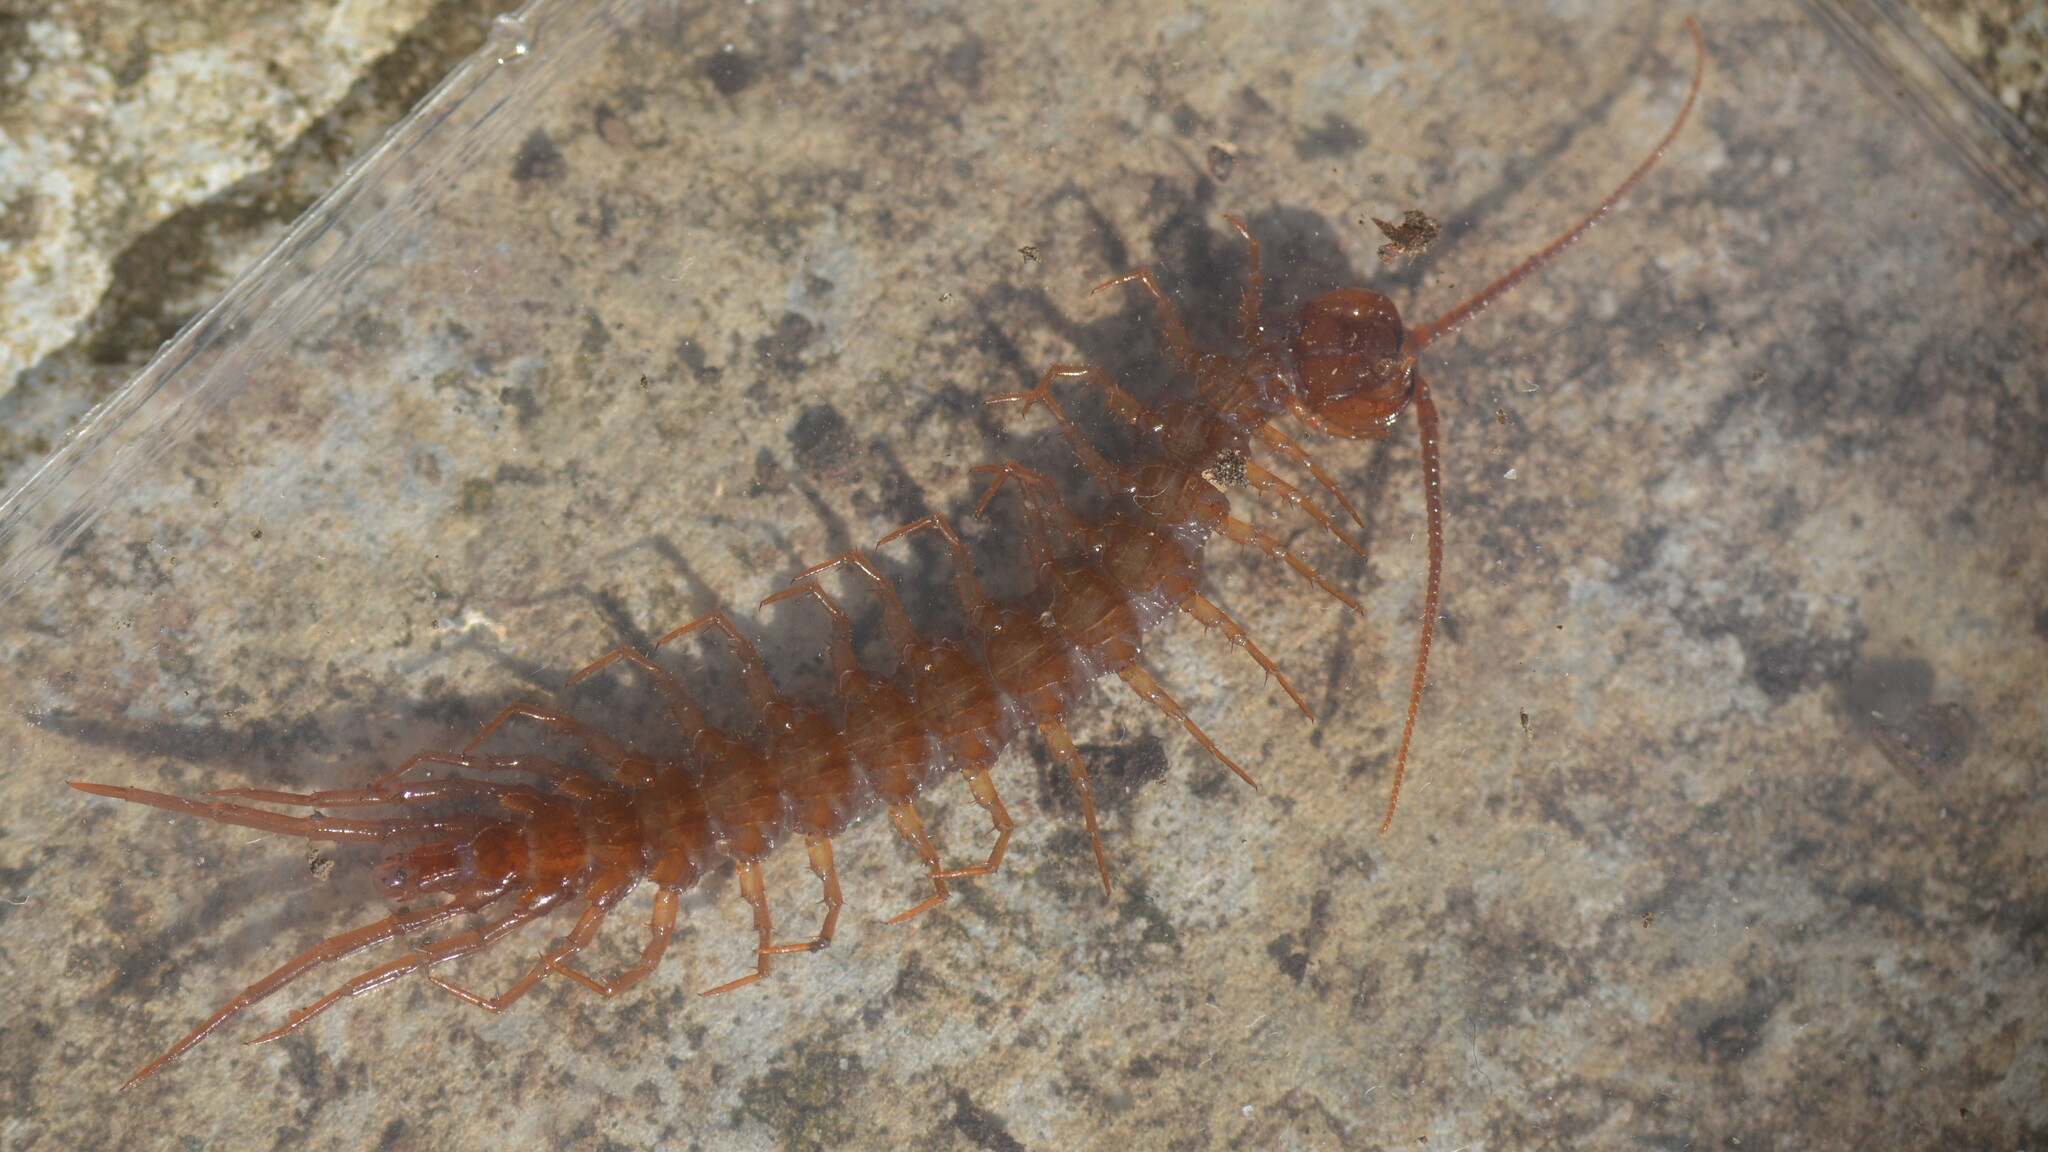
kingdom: Animalia
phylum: Arthropoda
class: Chilopoda
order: Lithobiomorpha
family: Lithobiidae
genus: Lithobius
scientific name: Lithobius forficatus
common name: Centipede
